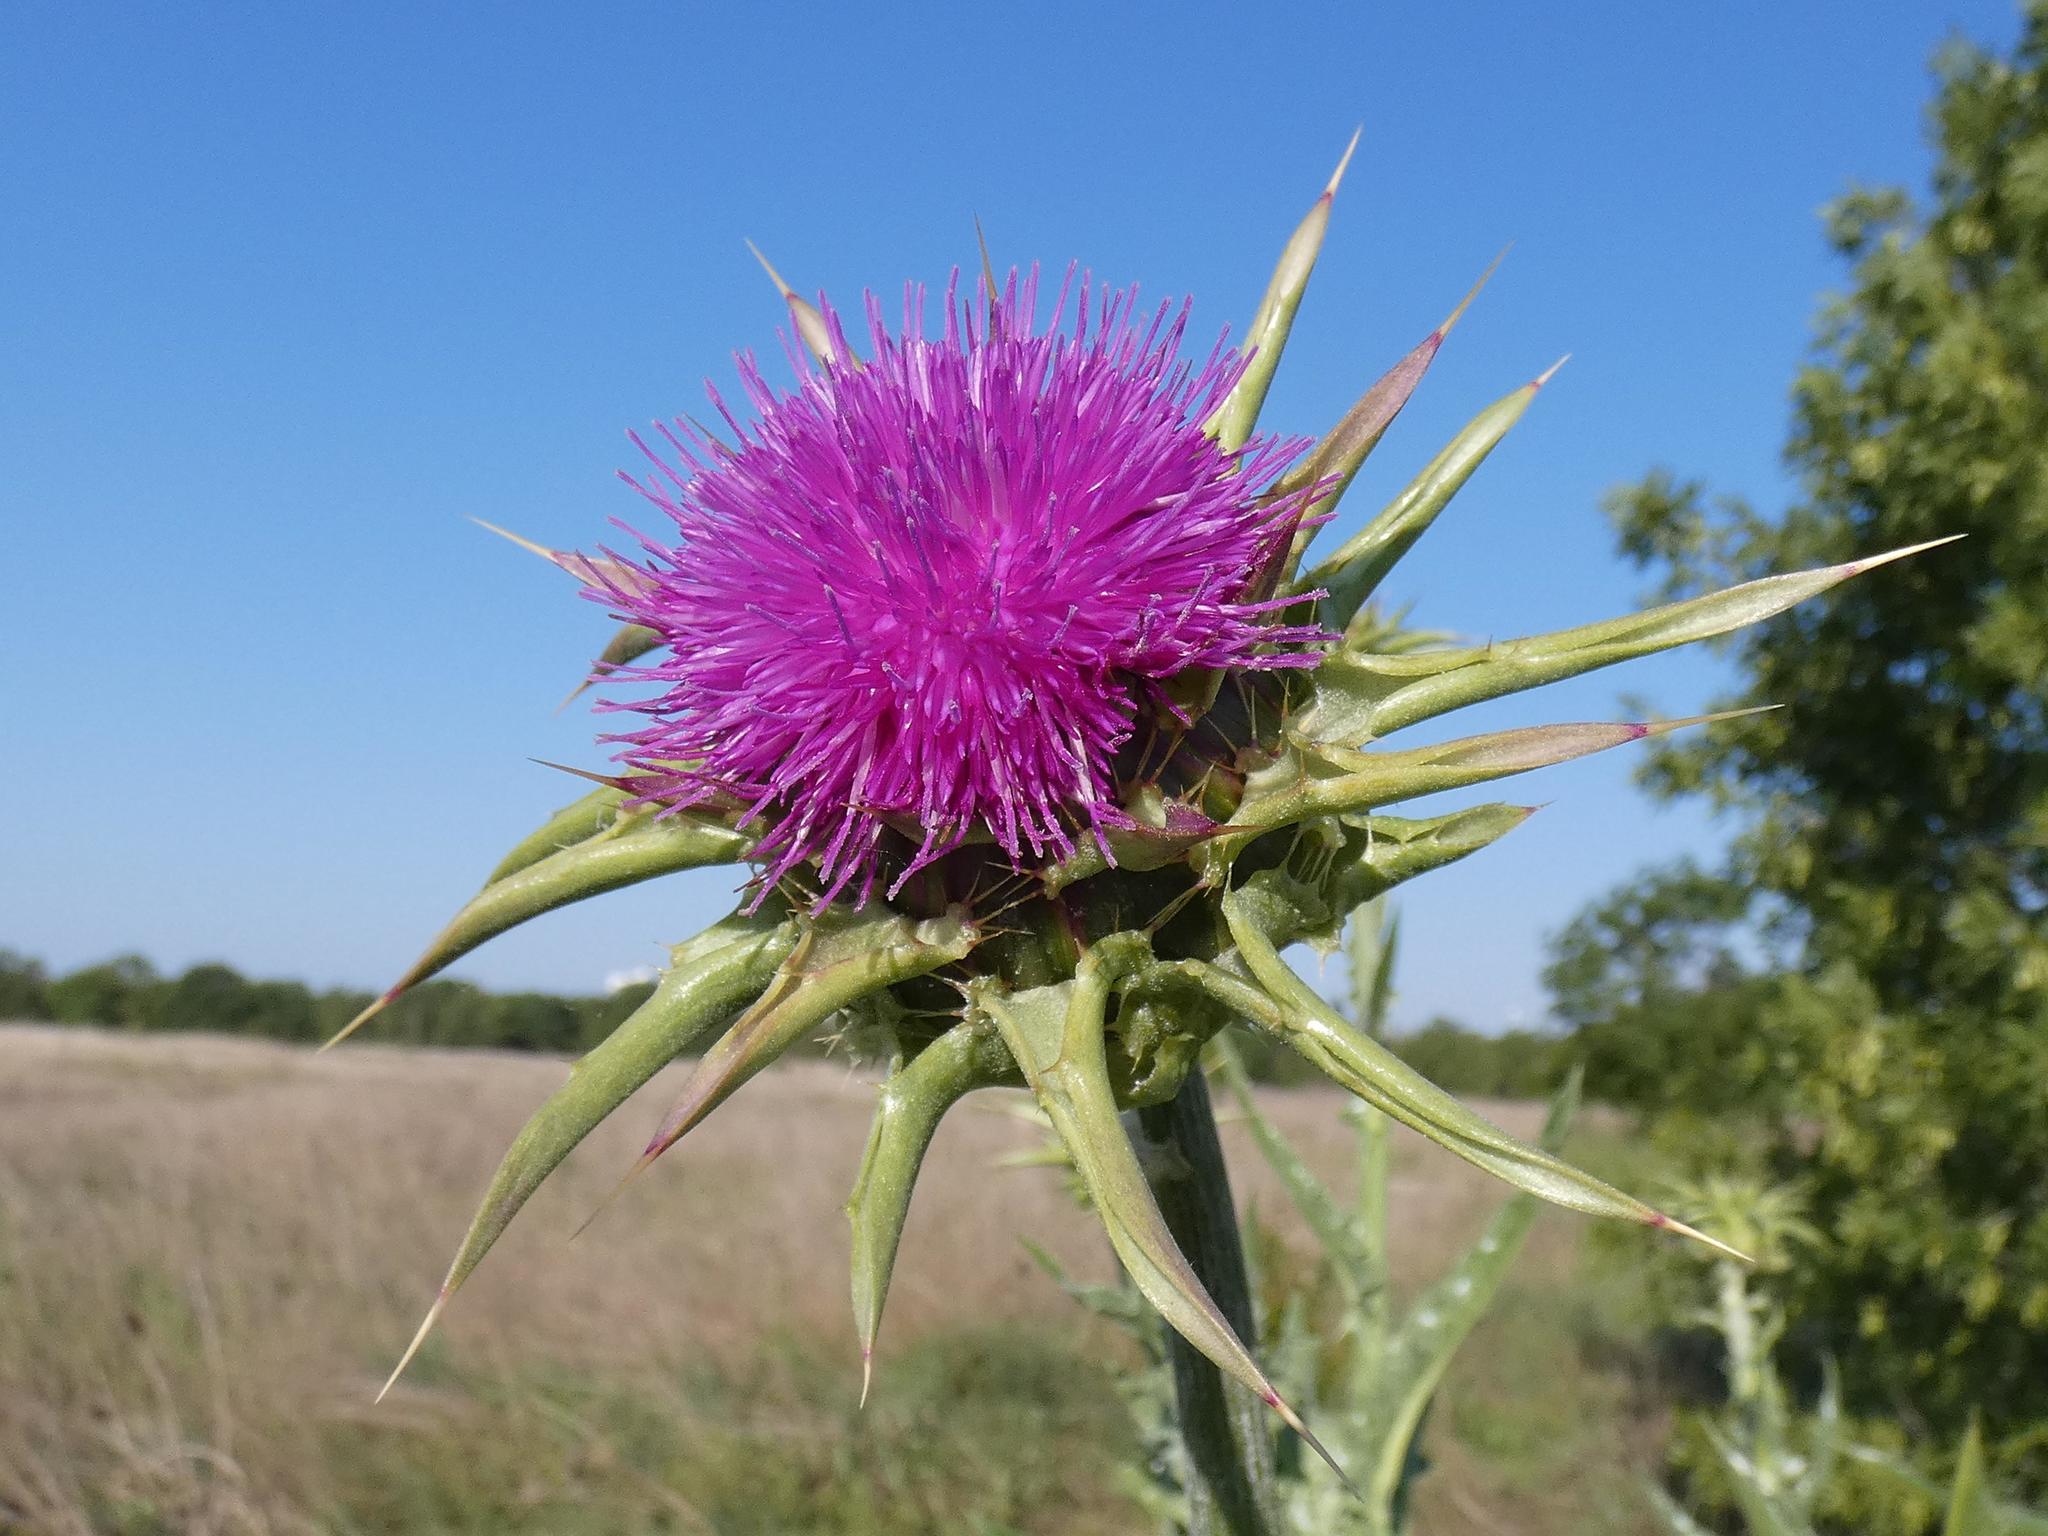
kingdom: Plantae
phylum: Tracheophyta
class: Magnoliopsida
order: Asterales
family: Asteraceae
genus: Silybum
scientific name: Silybum marianum
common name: Milk thistle
